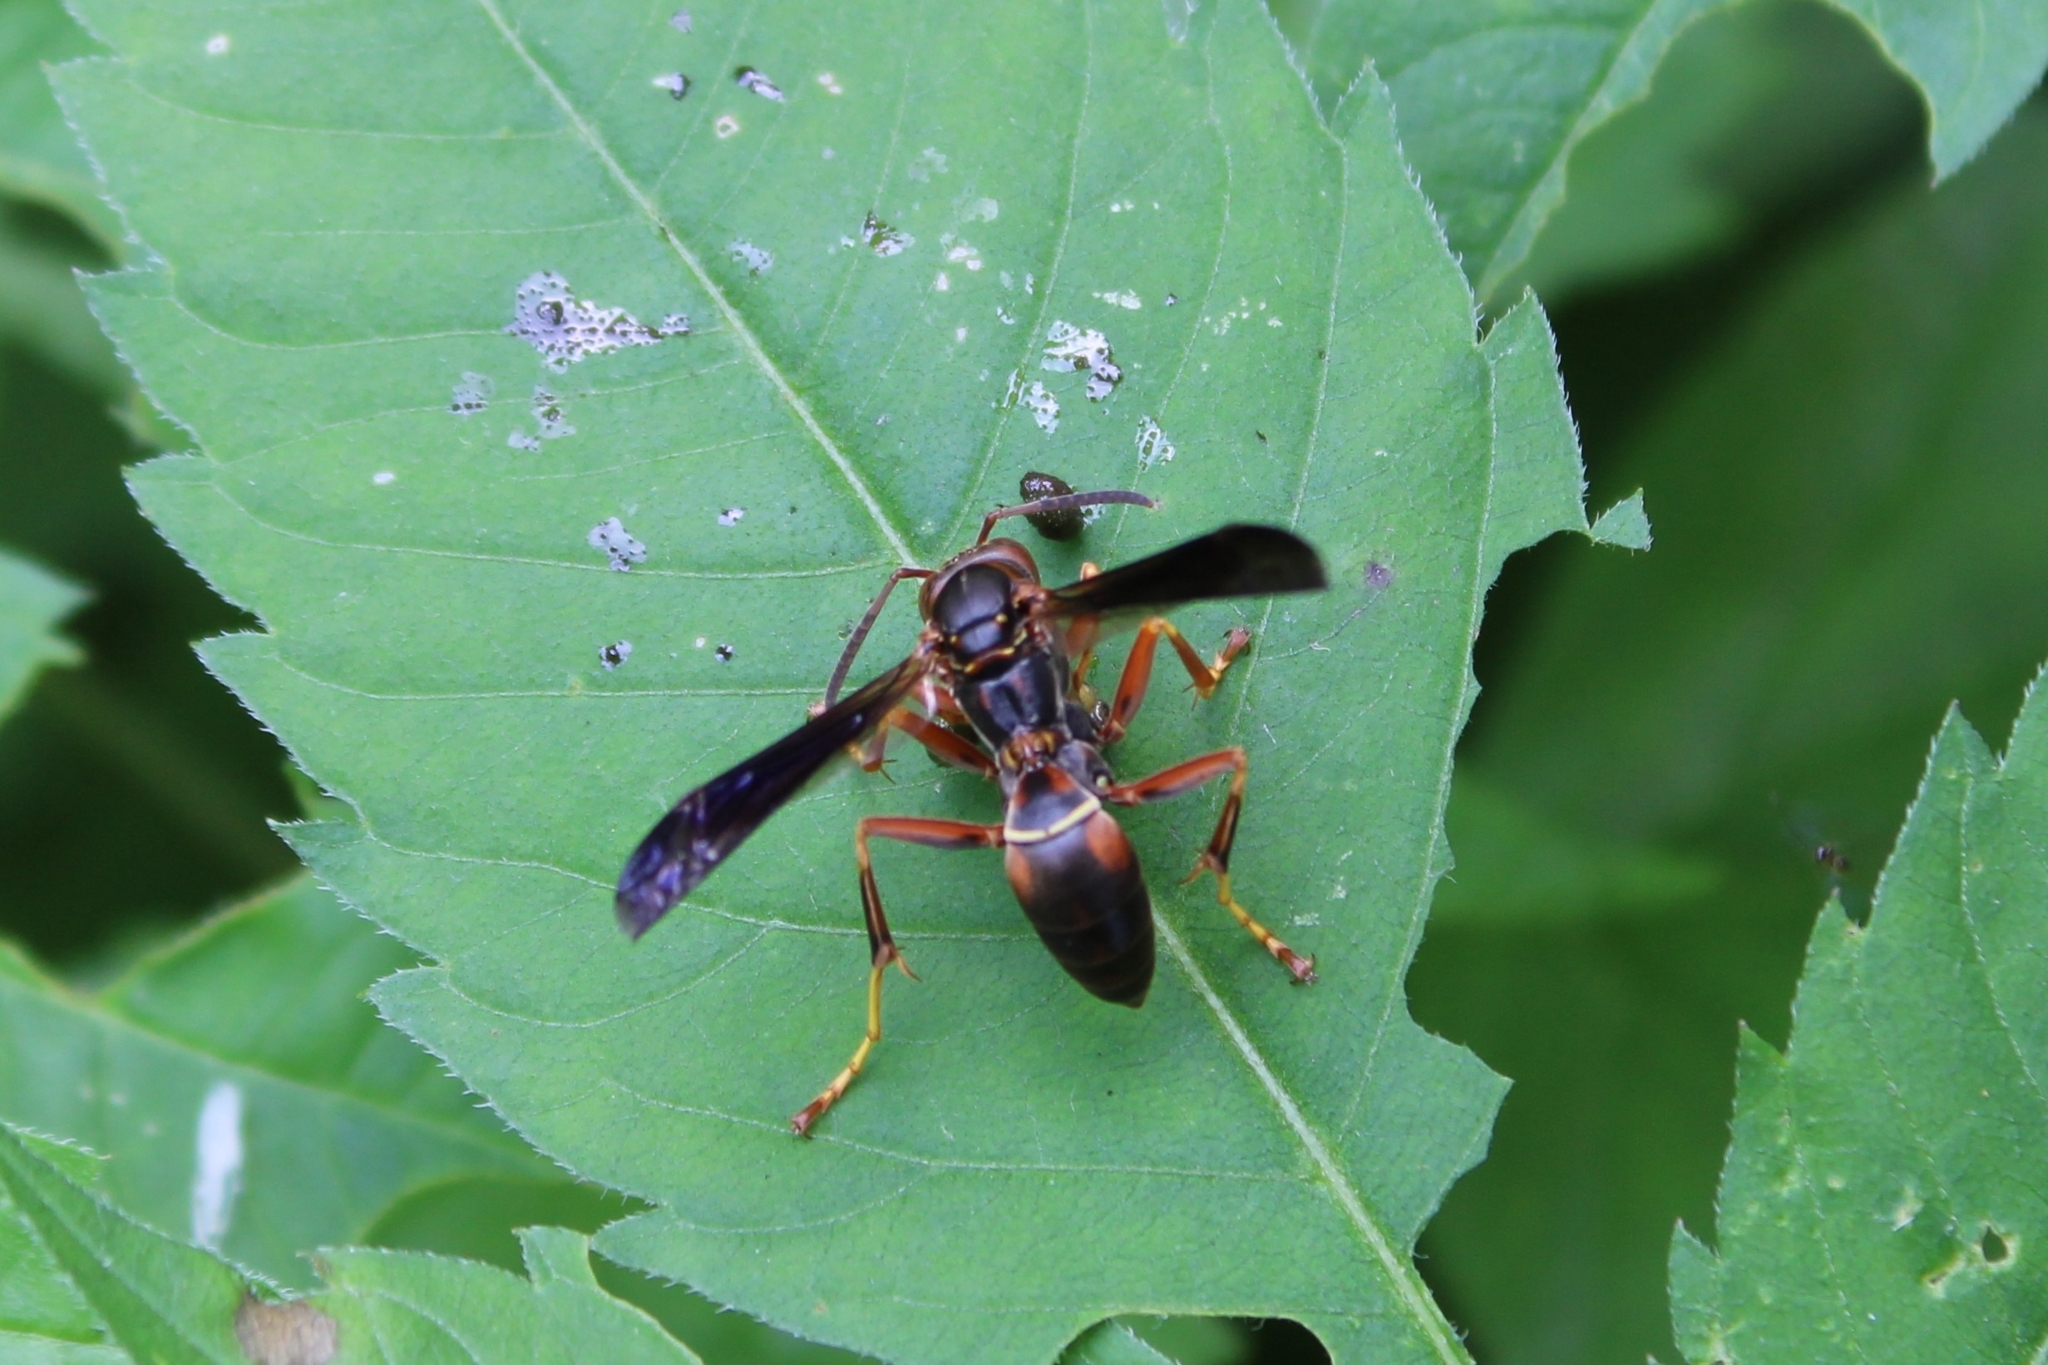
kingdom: Animalia
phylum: Arthropoda
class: Insecta
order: Hymenoptera
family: Eumenidae
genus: Polistes
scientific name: Polistes fuscatus
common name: Dark paper wasp
